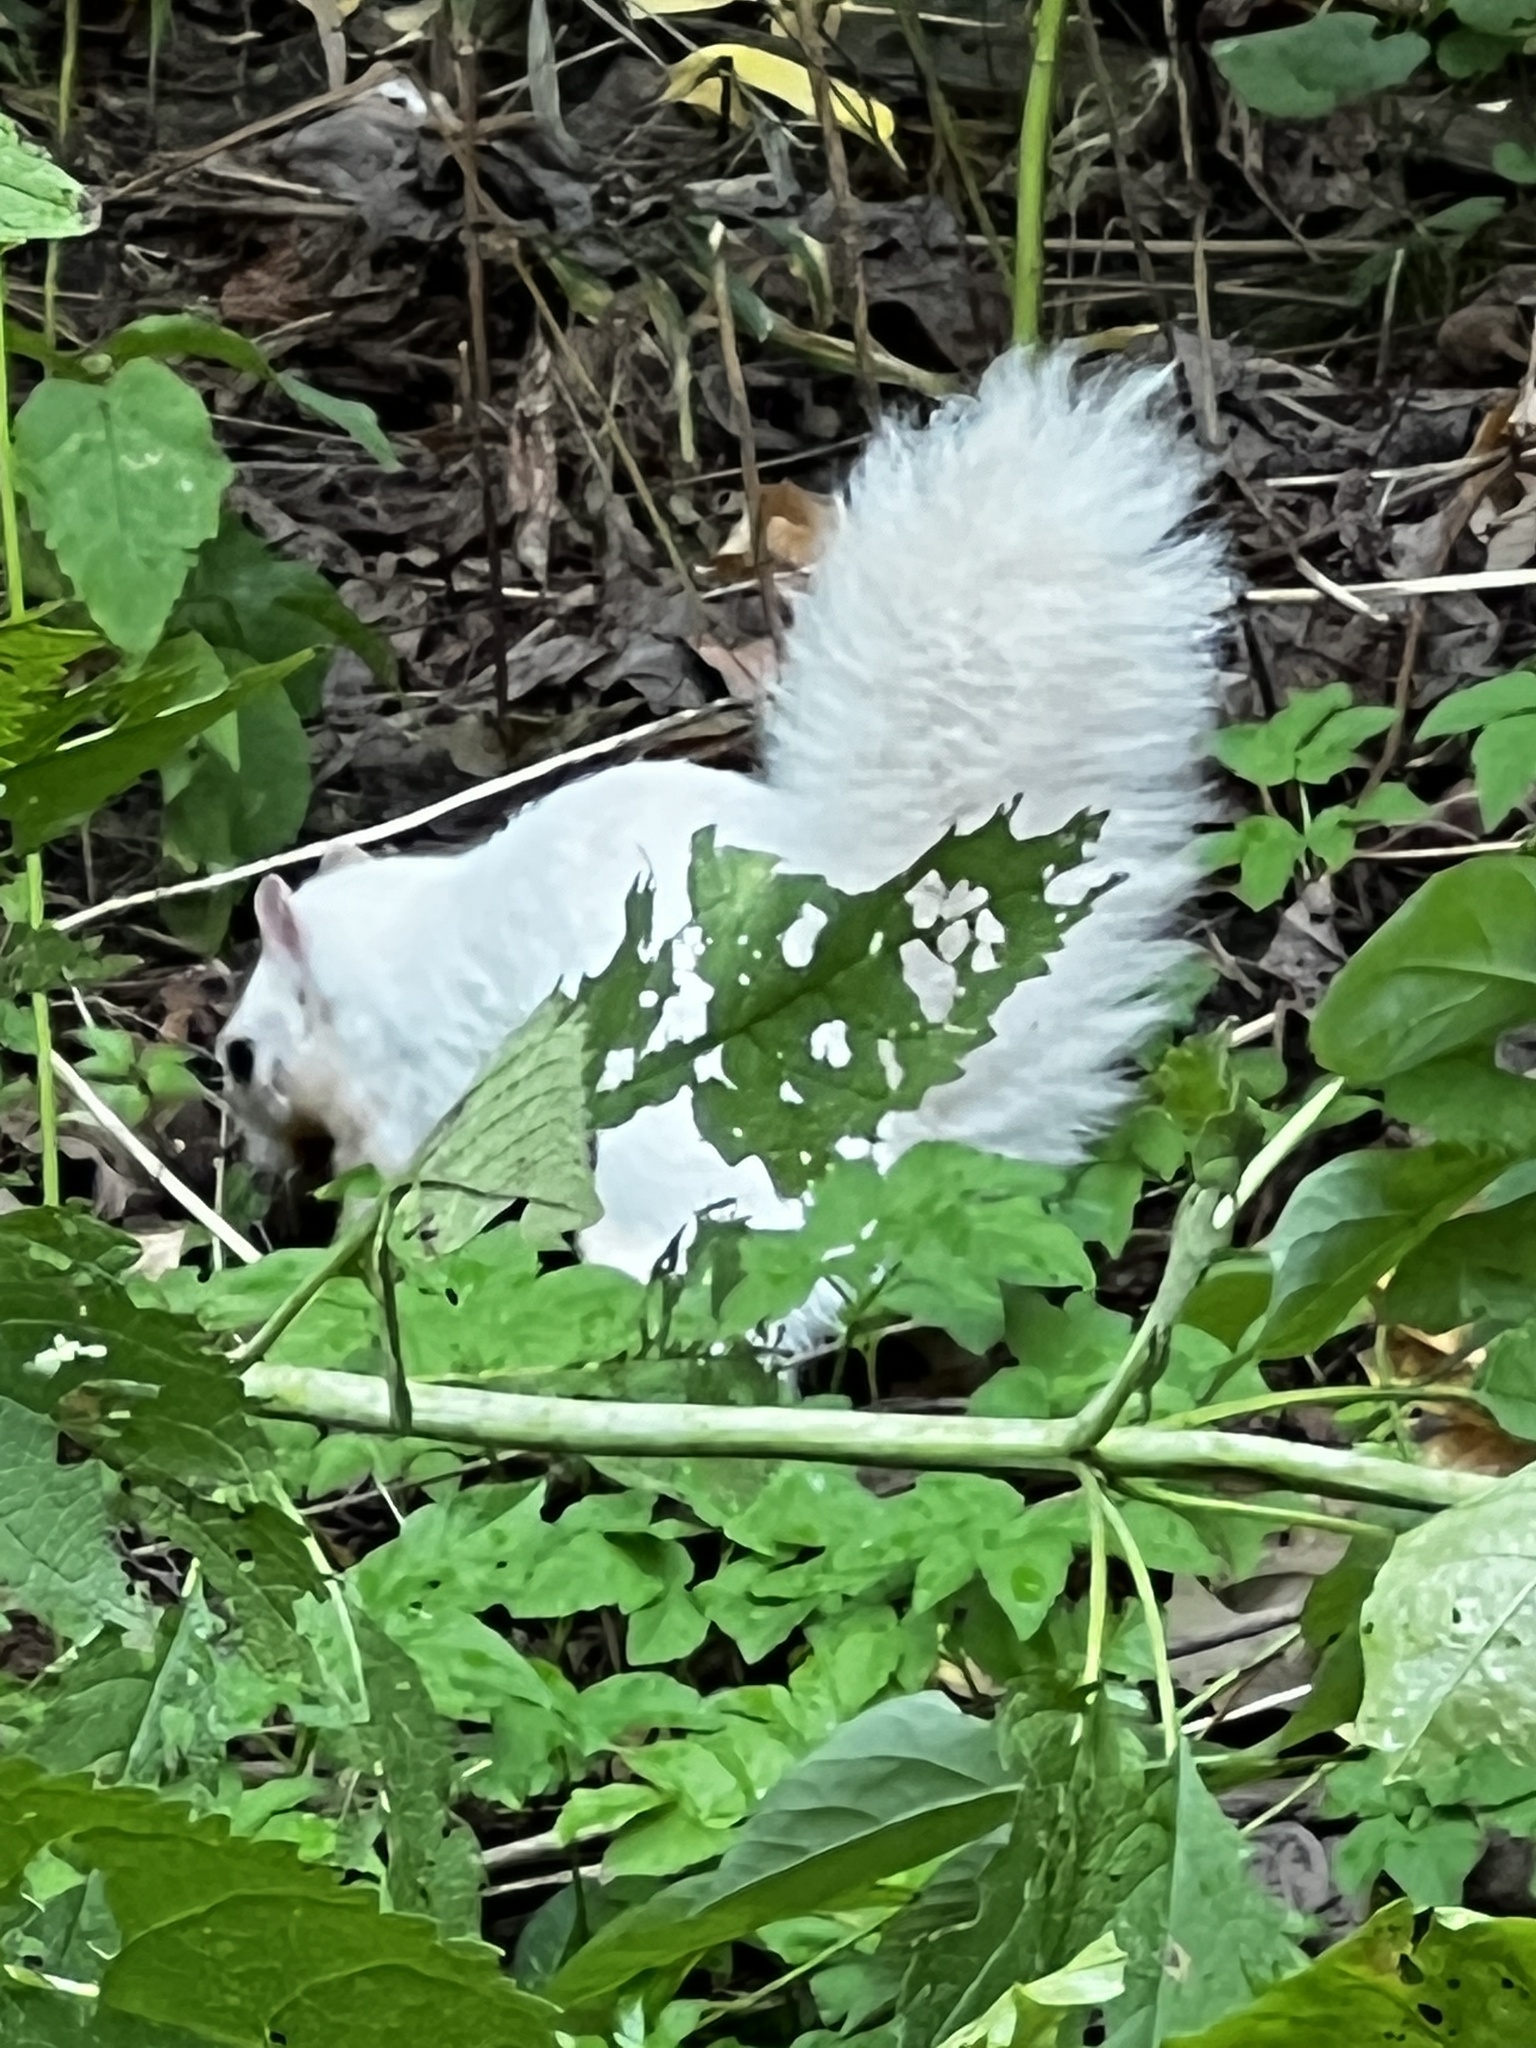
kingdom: Animalia
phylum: Chordata
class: Mammalia
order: Rodentia
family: Sciuridae
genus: Sciurus
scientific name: Sciurus carolinensis
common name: Eastern gray squirrel
